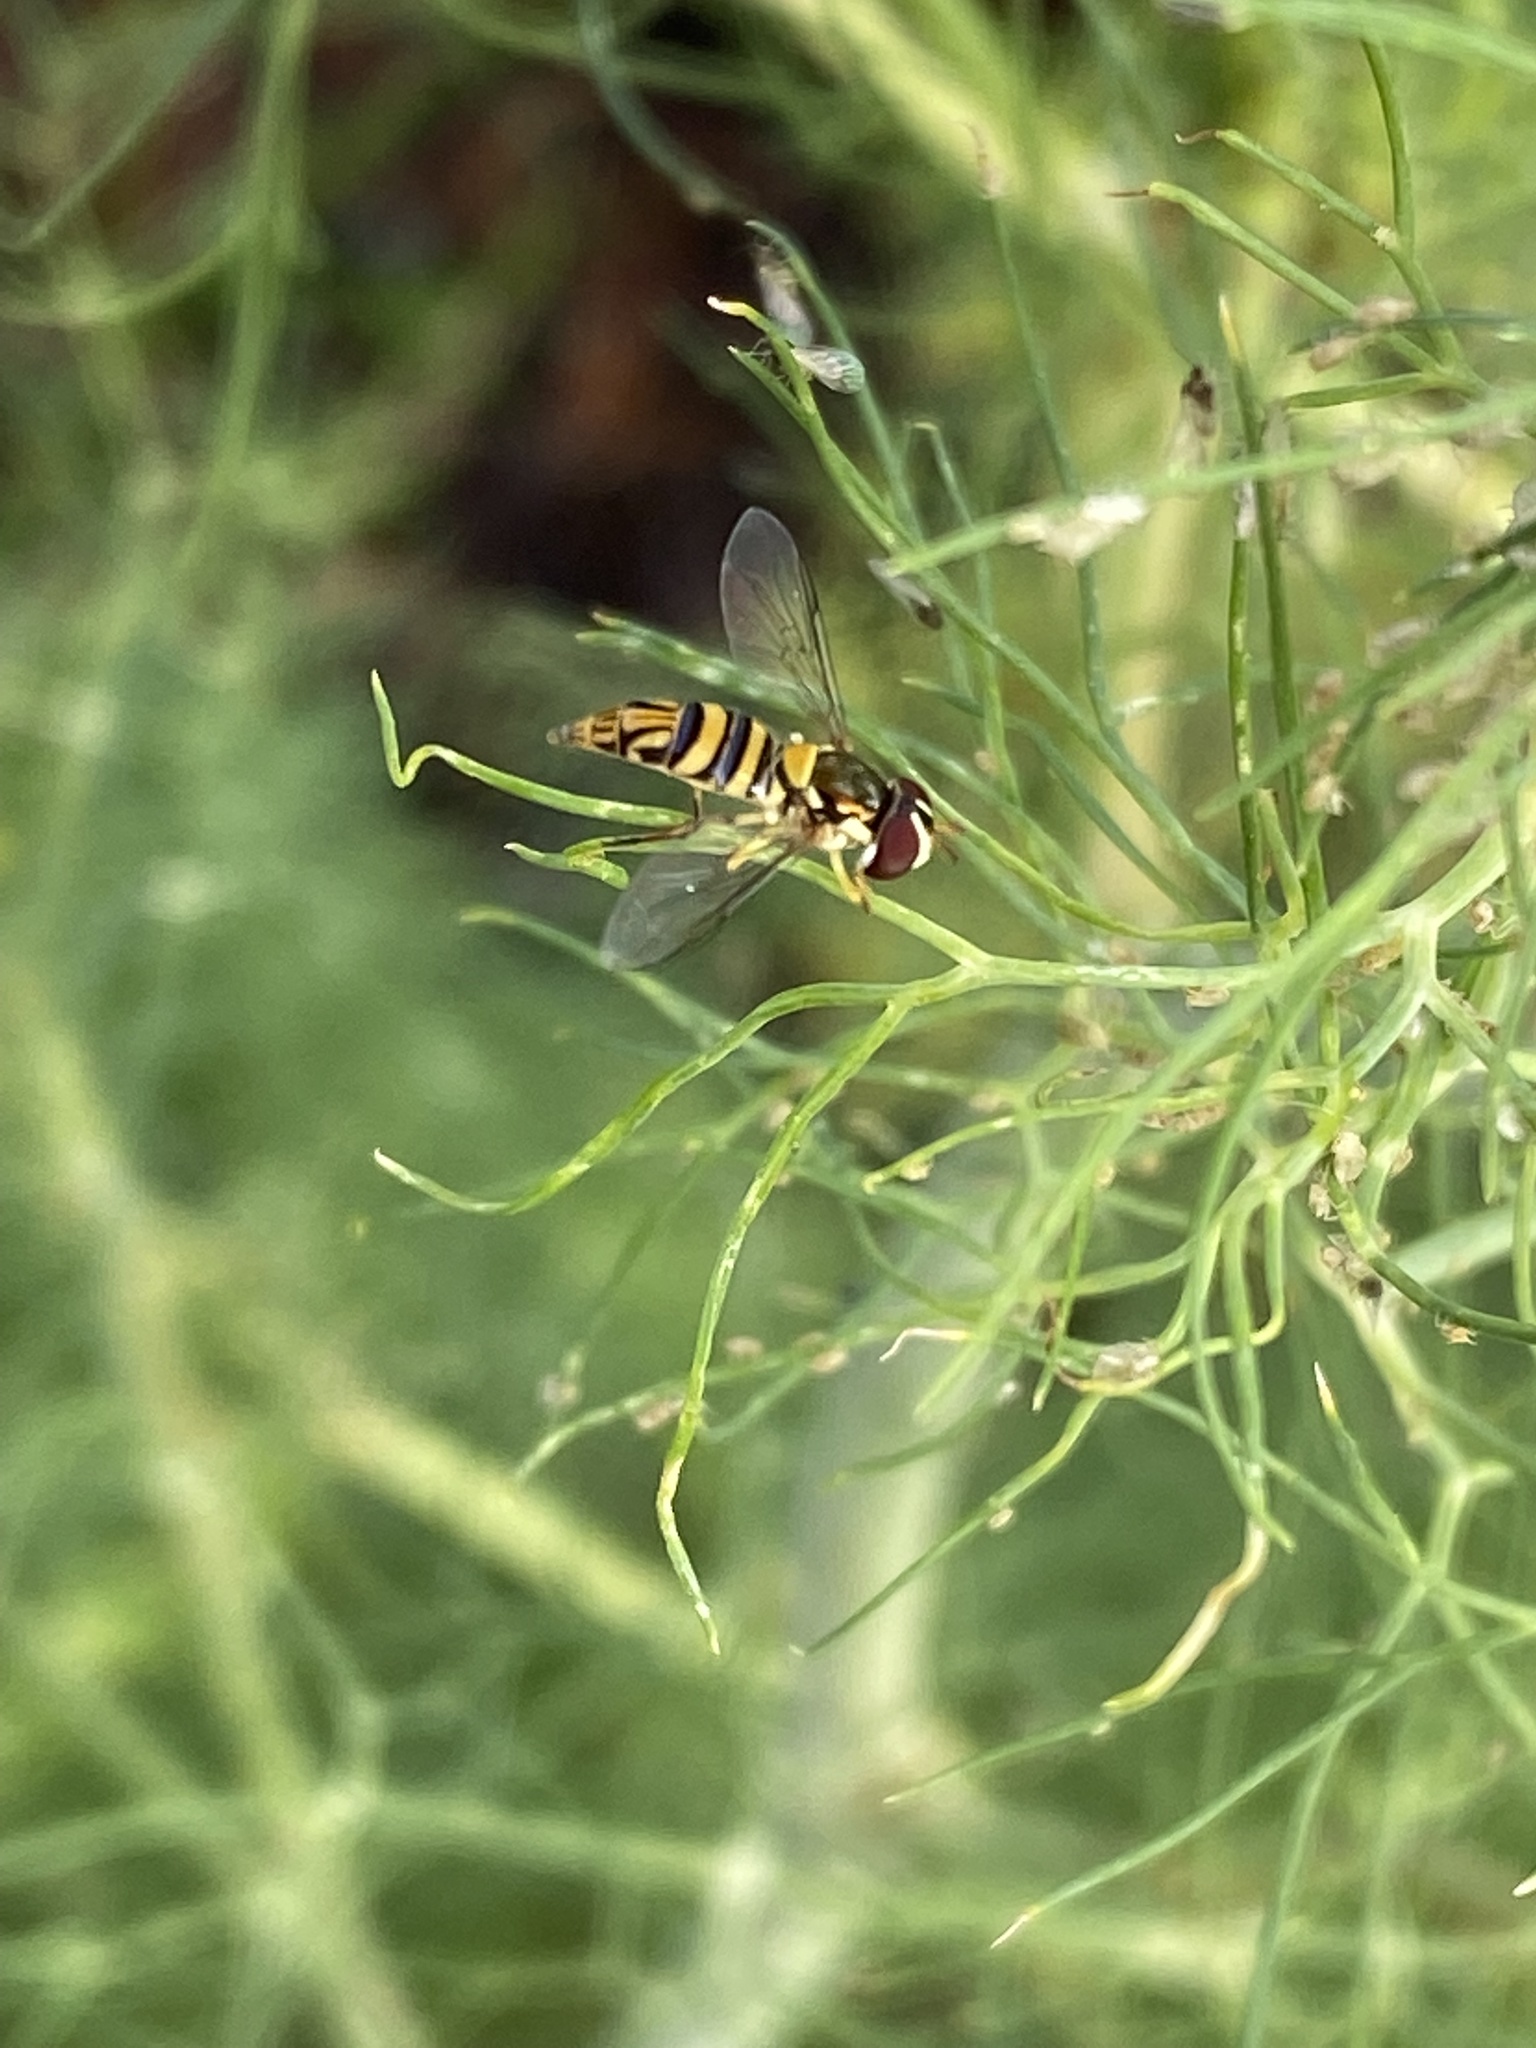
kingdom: Animalia
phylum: Arthropoda
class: Insecta
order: Diptera
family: Syrphidae
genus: Allograpta
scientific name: Allograpta obliqua
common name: Common oblique syrphid
